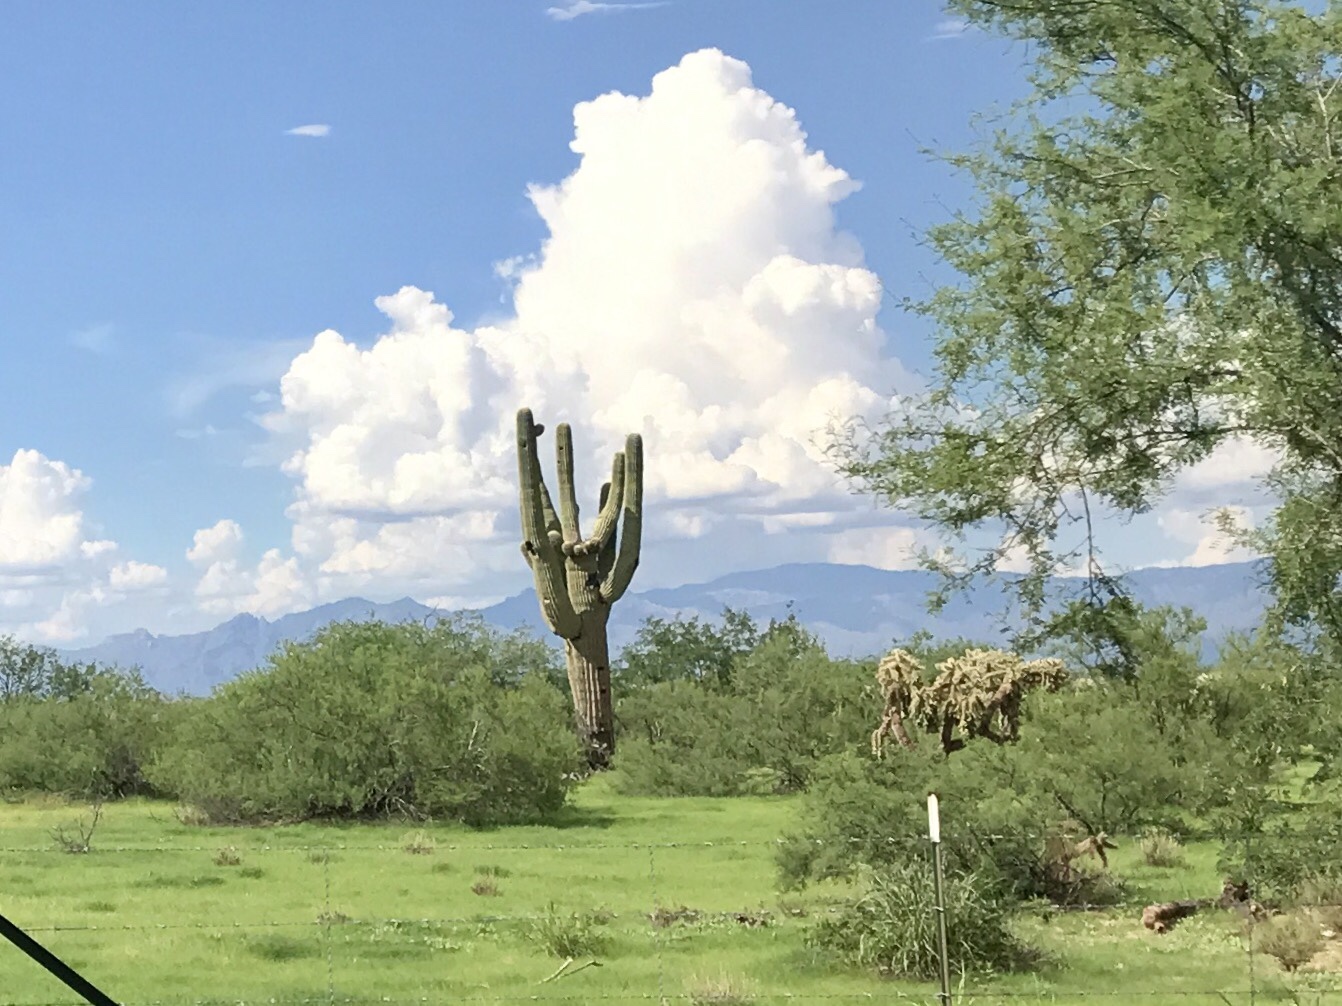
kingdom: Plantae
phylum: Tracheophyta
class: Magnoliopsida
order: Caryophyllales
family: Cactaceae
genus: Carnegiea
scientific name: Carnegiea gigantea
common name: Saguaro
